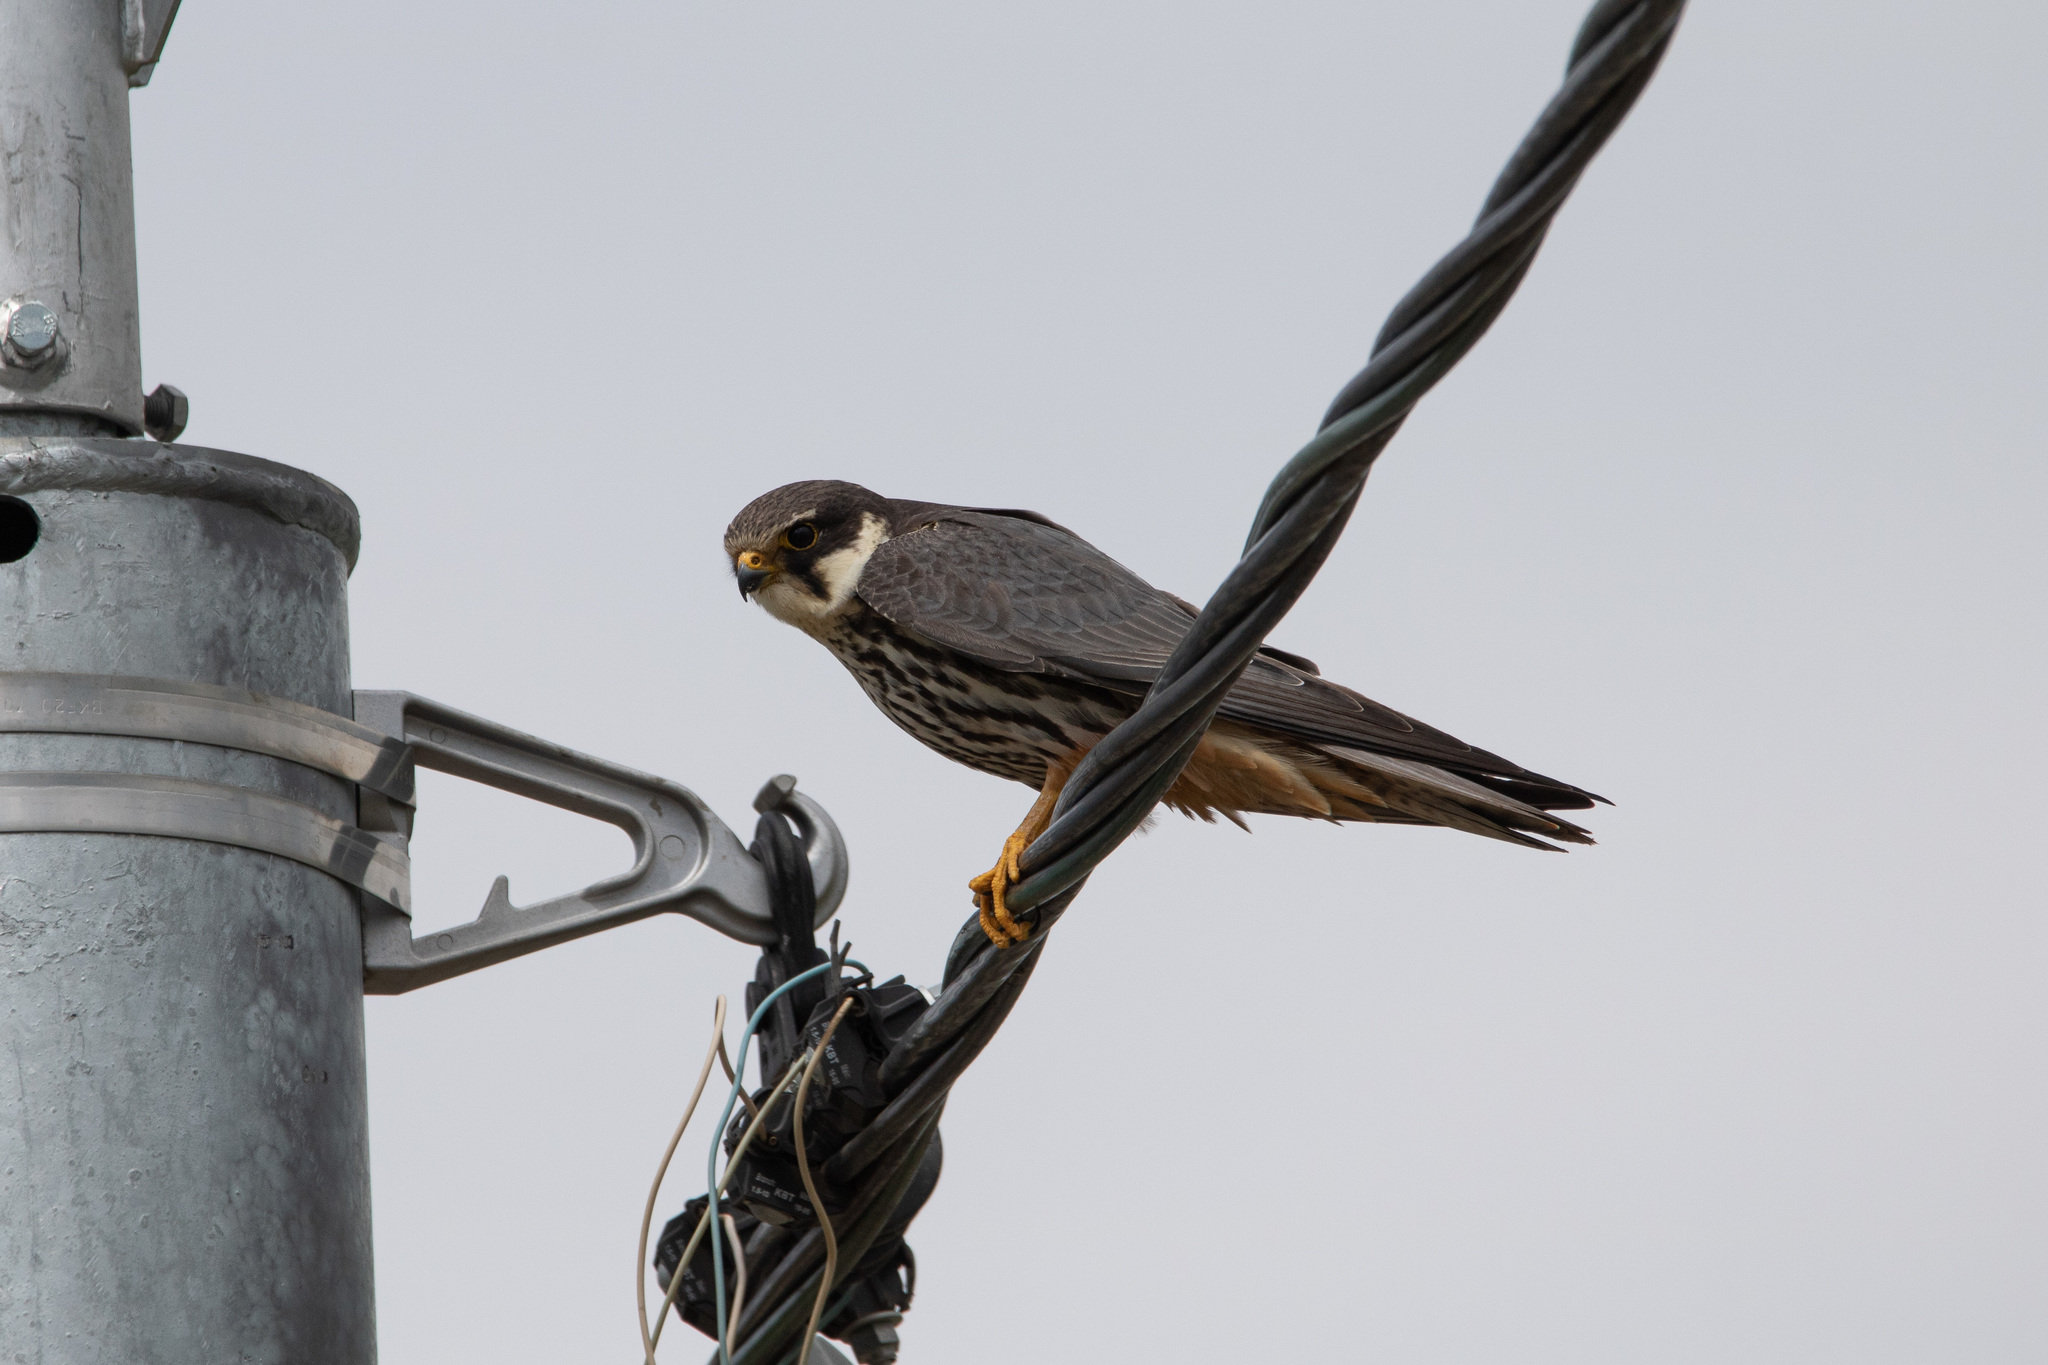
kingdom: Animalia
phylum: Chordata
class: Aves
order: Falconiformes
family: Falconidae
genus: Falco
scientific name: Falco subbuteo
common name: Eurasian hobby
